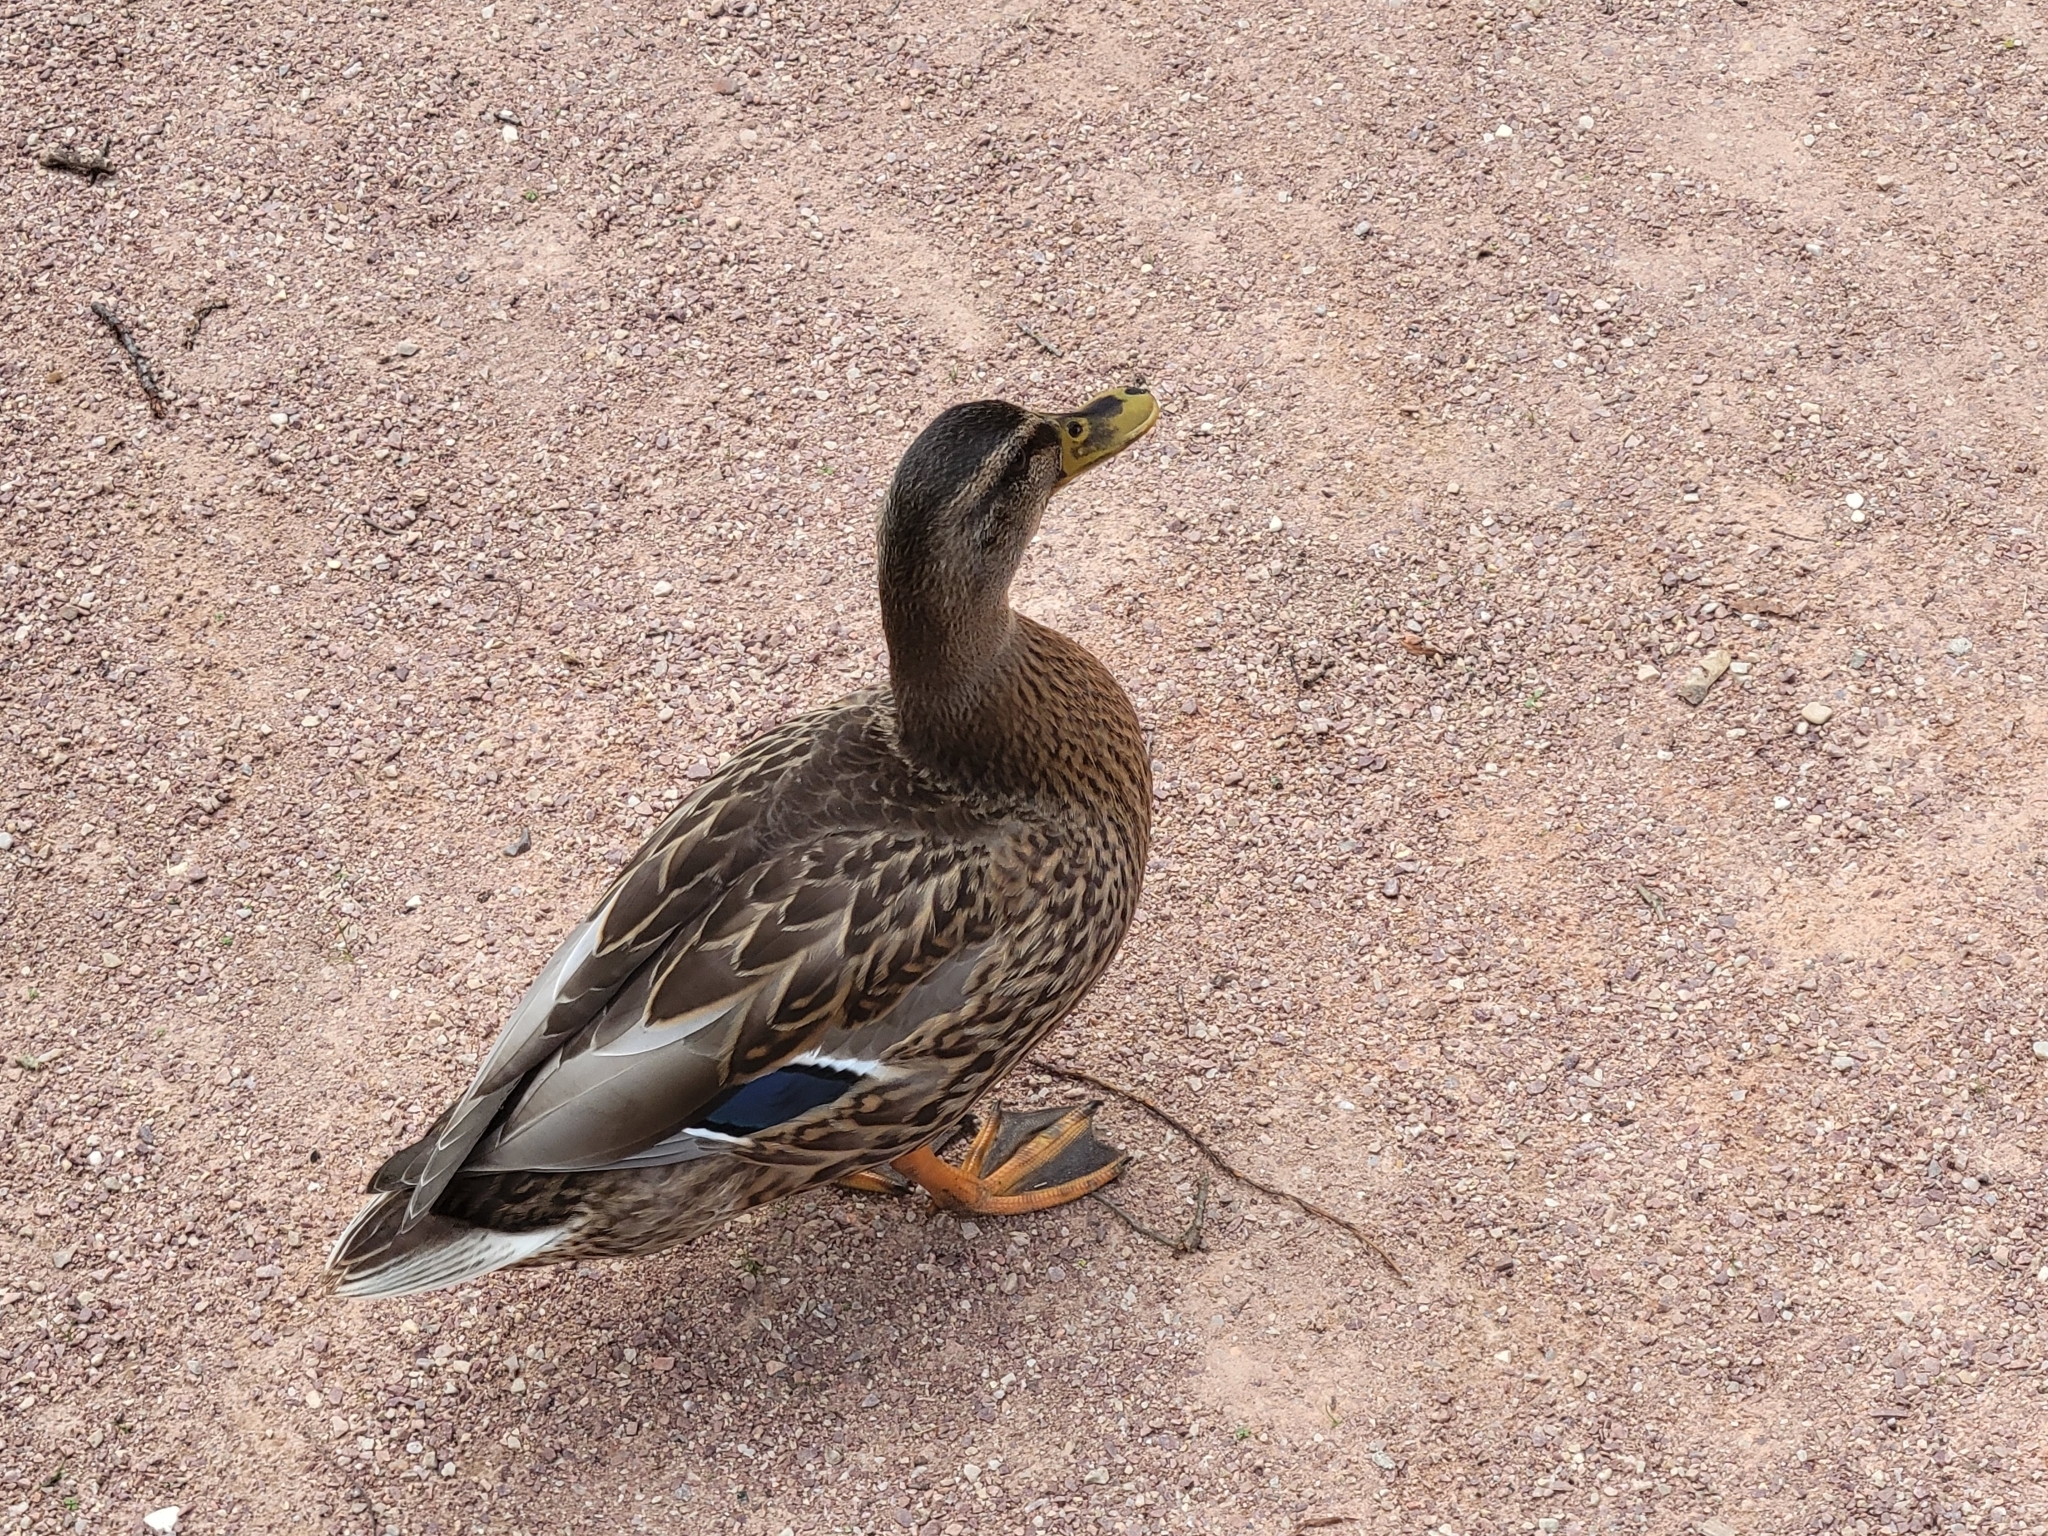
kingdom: Animalia
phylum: Chordata
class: Aves
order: Anseriformes
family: Anatidae
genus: Anas
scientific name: Anas platyrhynchos
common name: Mallard
